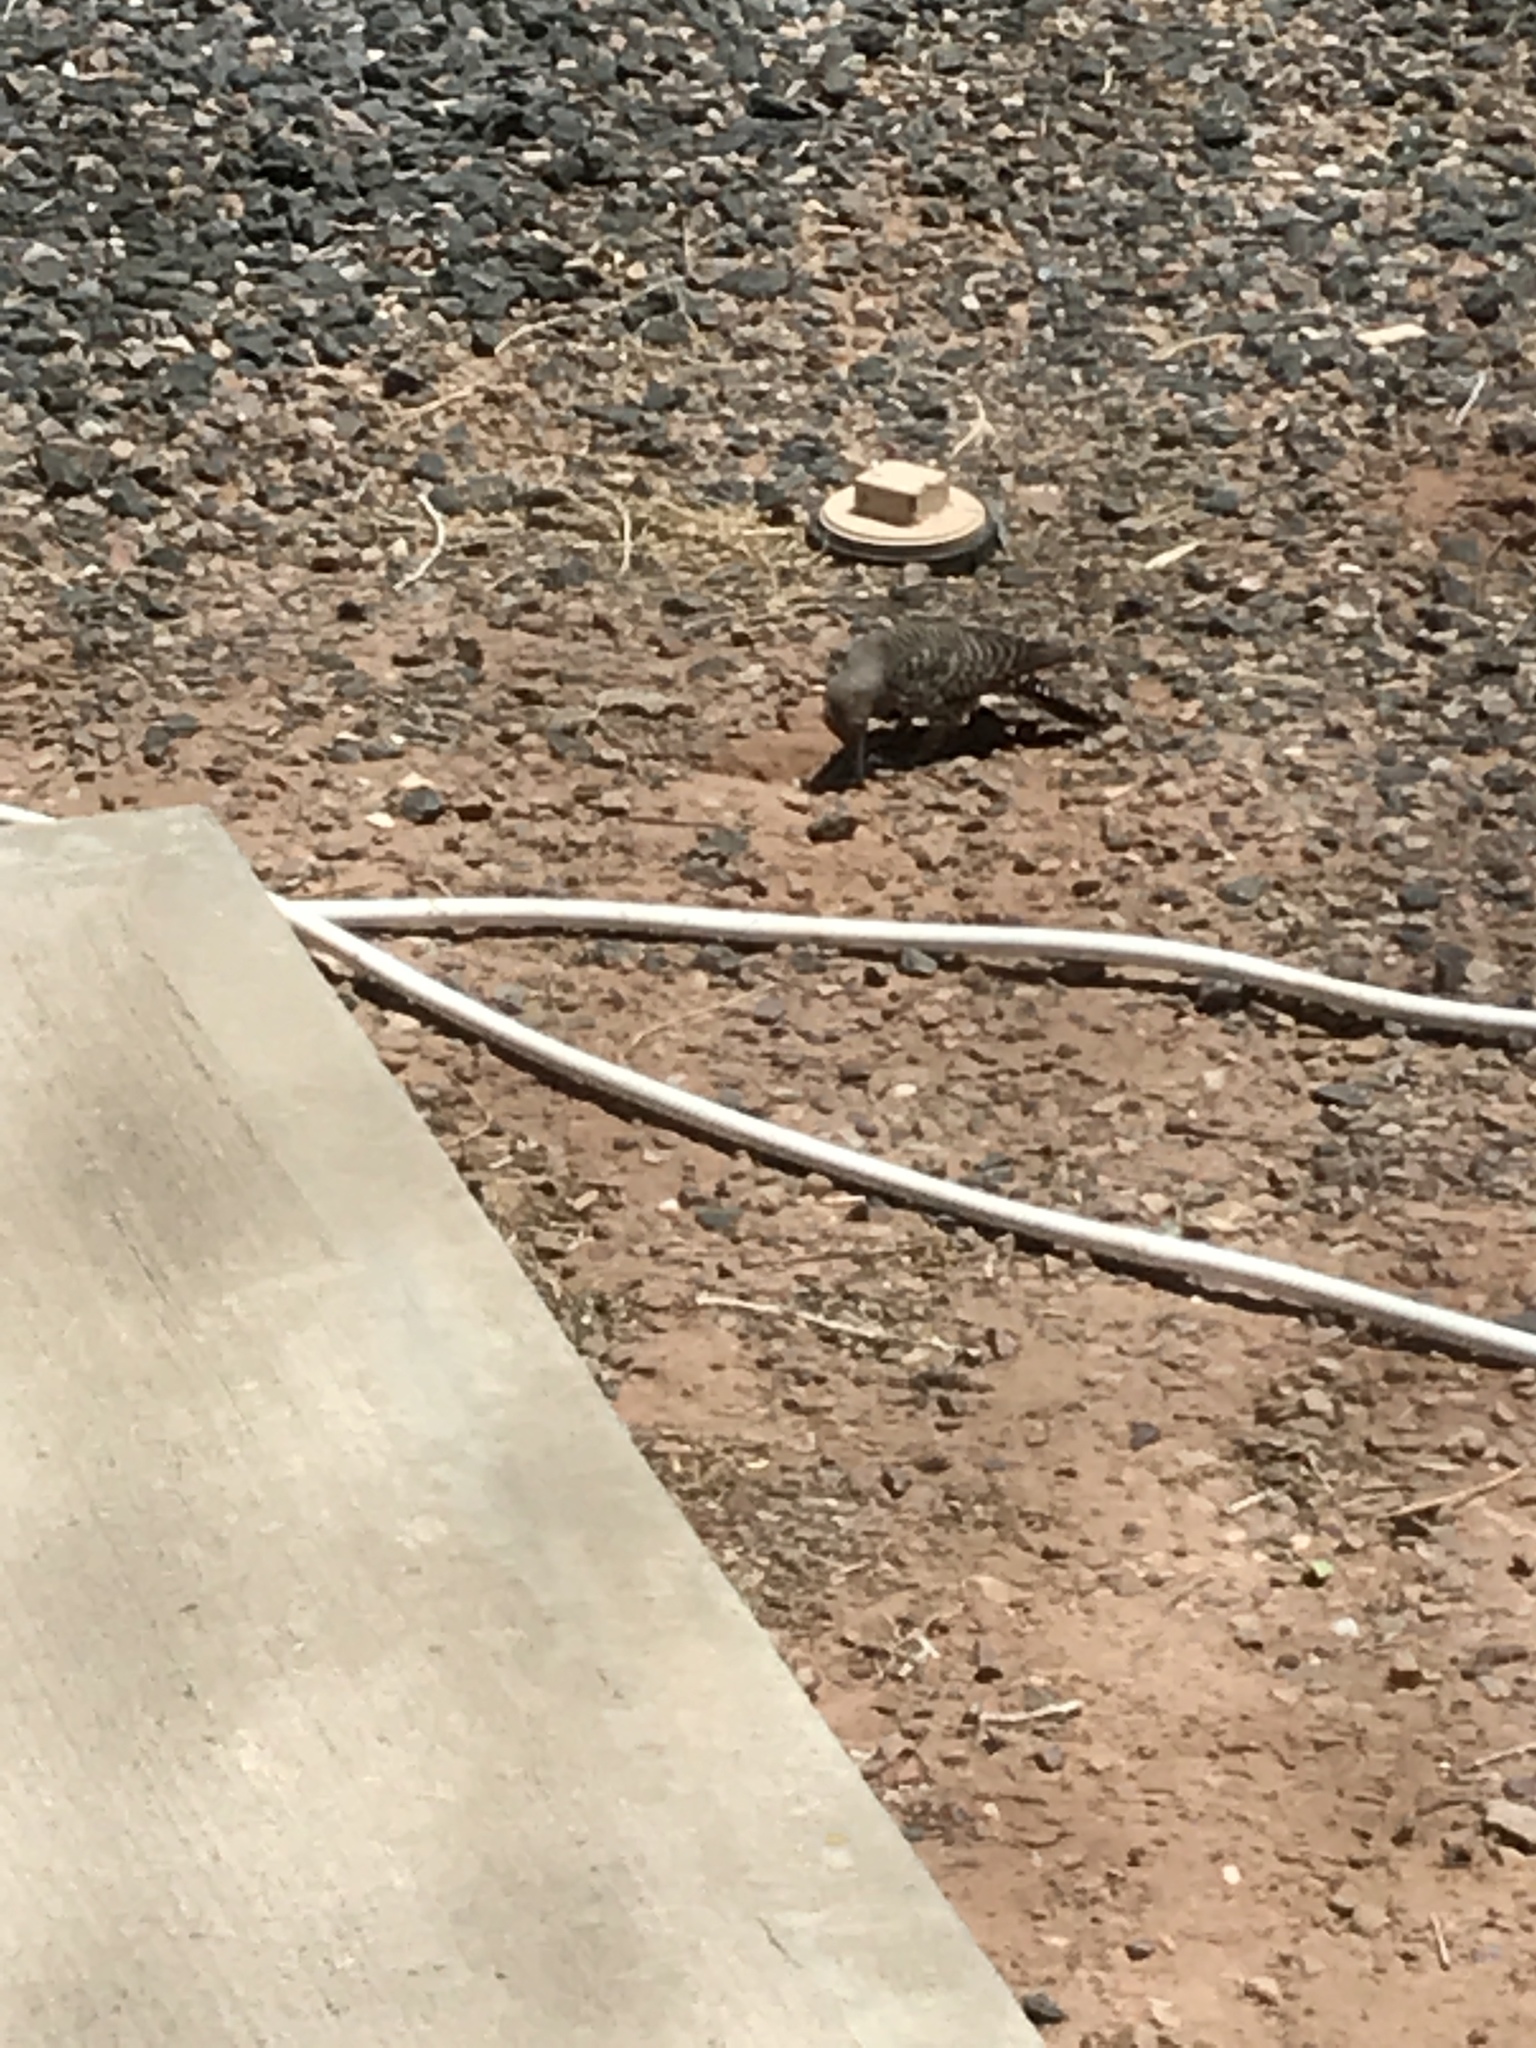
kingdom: Animalia
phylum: Chordata
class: Aves
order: Piciformes
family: Picidae
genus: Colaptes
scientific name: Colaptes auratus
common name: Northern flicker
